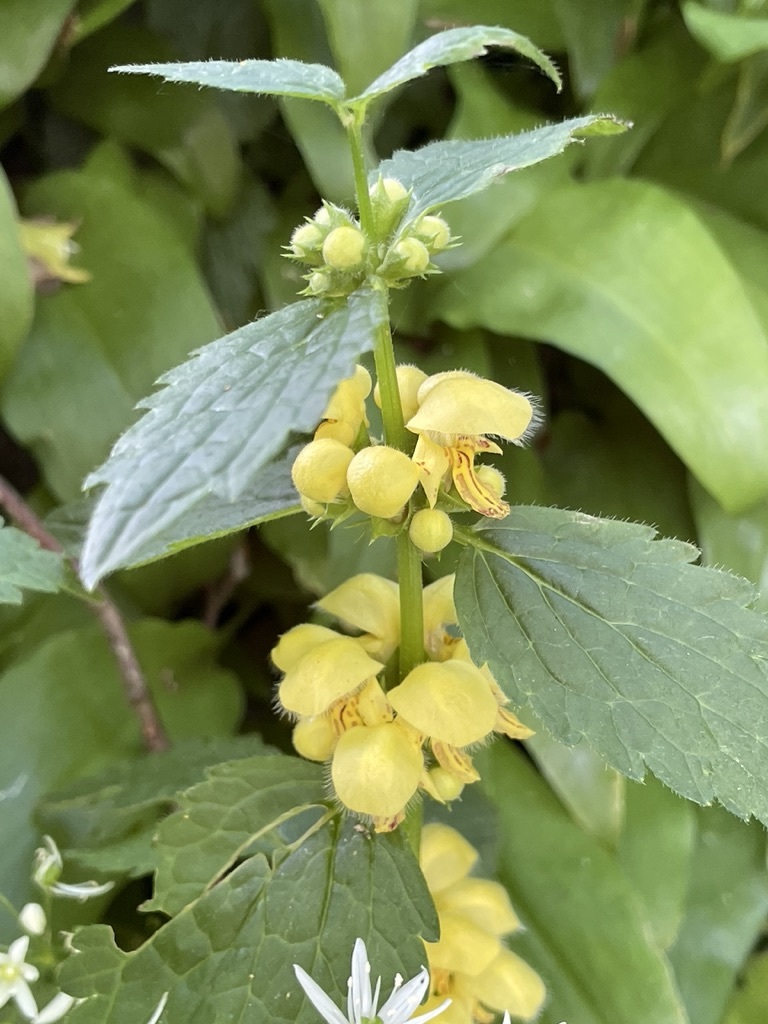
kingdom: Plantae
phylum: Tracheophyta
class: Magnoliopsida
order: Lamiales
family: Lamiaceae
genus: Lamium
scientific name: Lamium galeobdolon
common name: Yellow archangel
